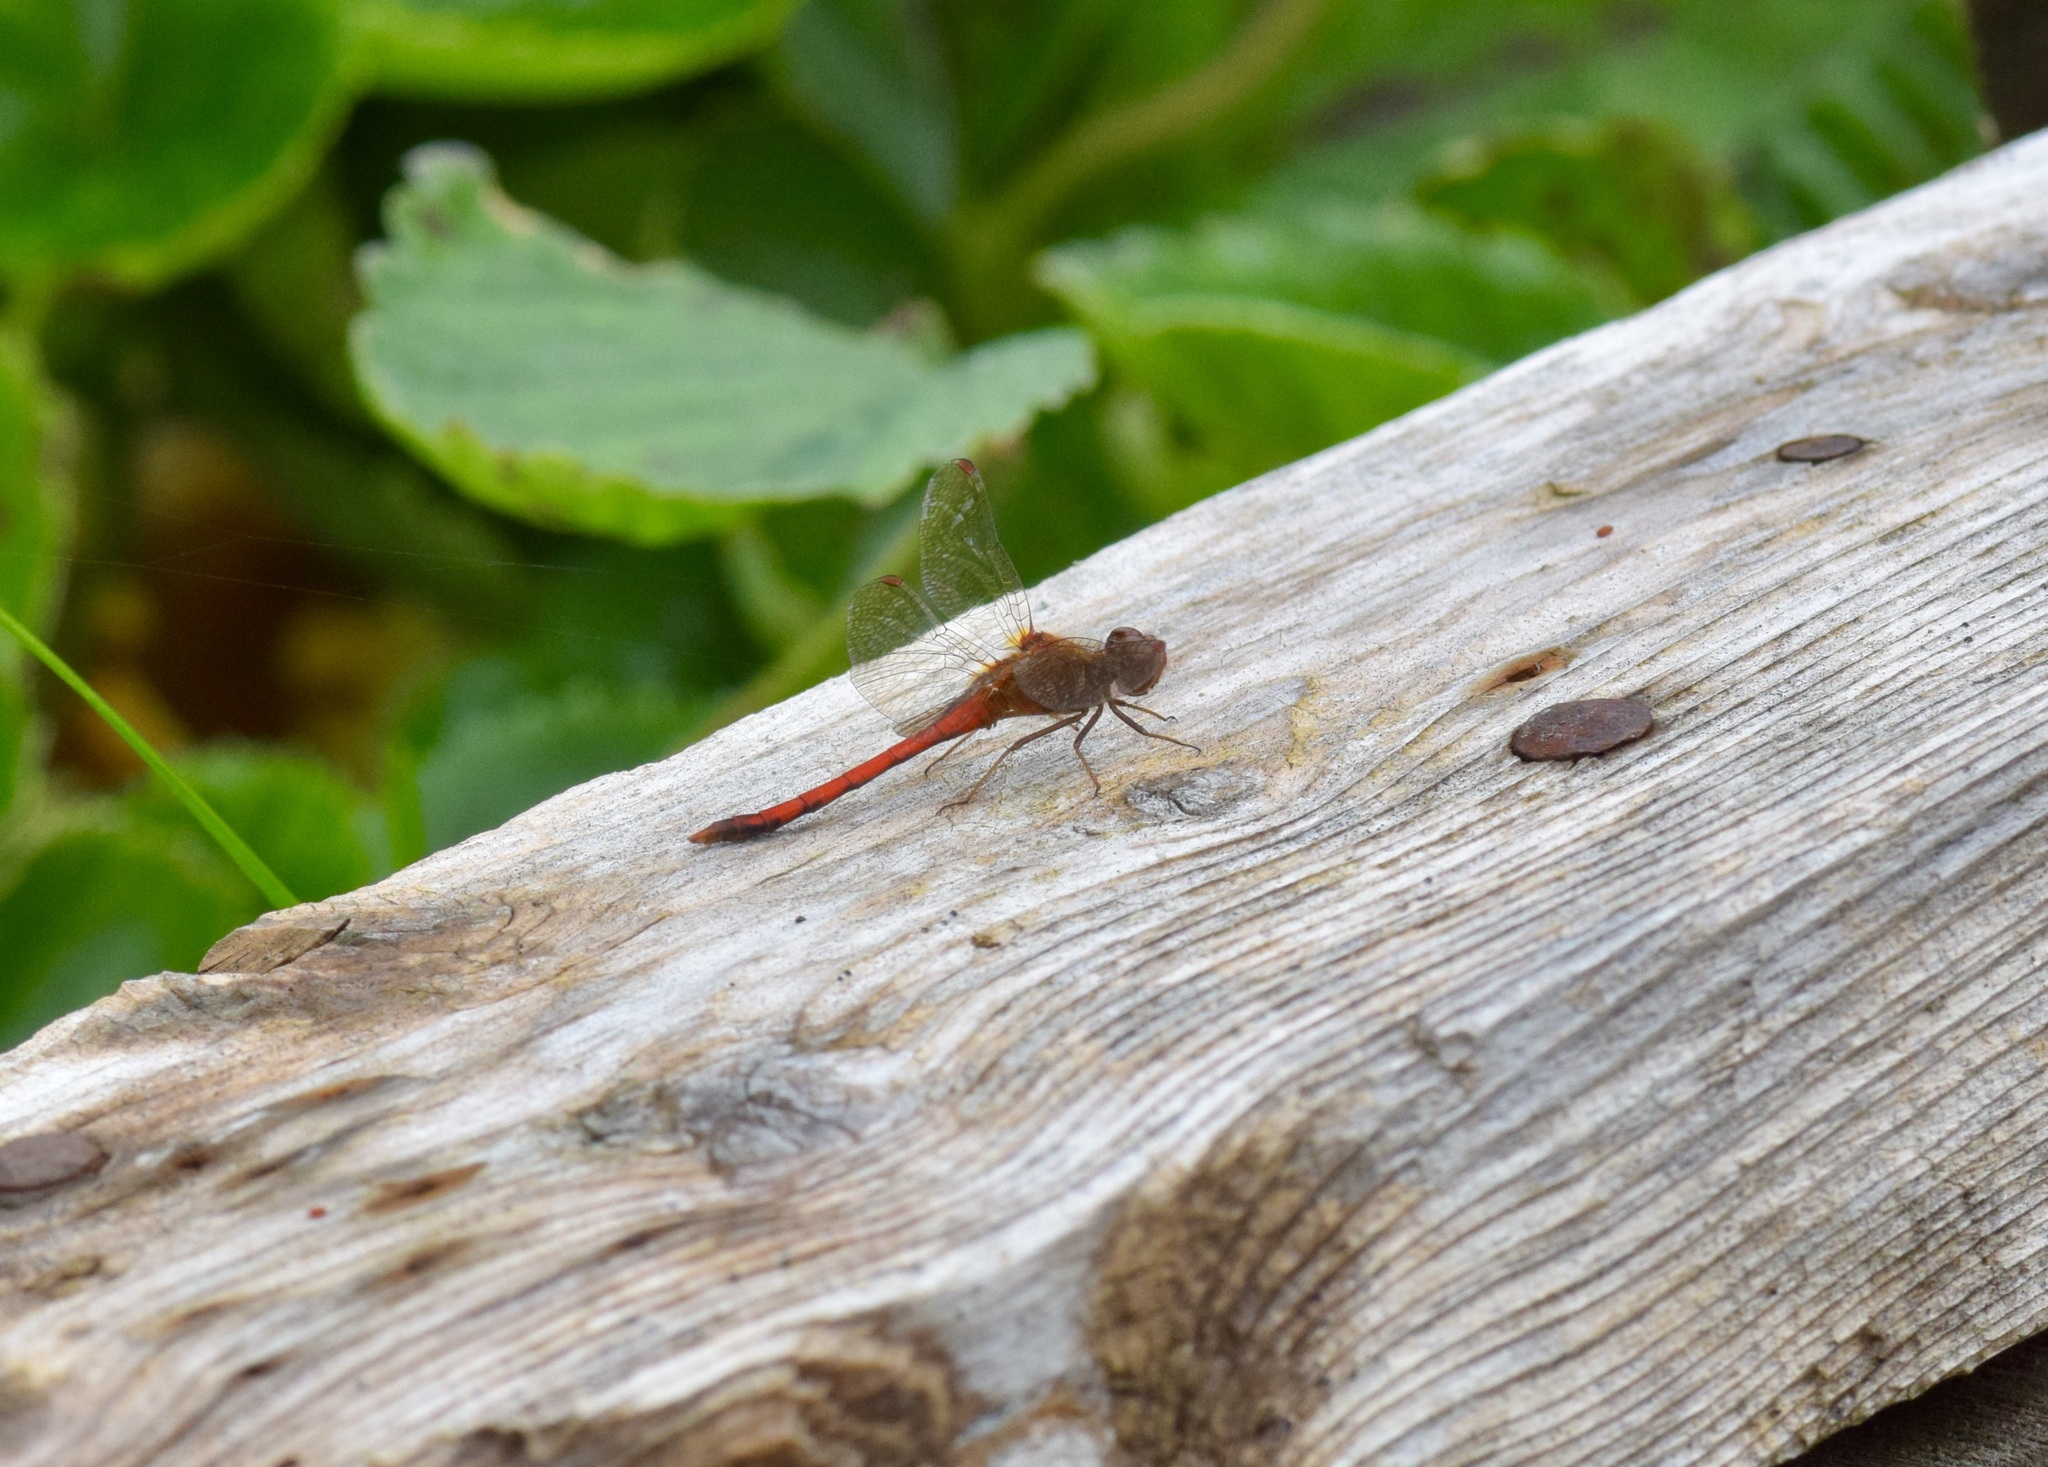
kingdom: Animalia
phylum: Arthropoda
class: Insecta
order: Odonata
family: Libellulidae
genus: Sympetrum
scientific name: Sympetrum vicinum
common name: Autumn meadowhawk
